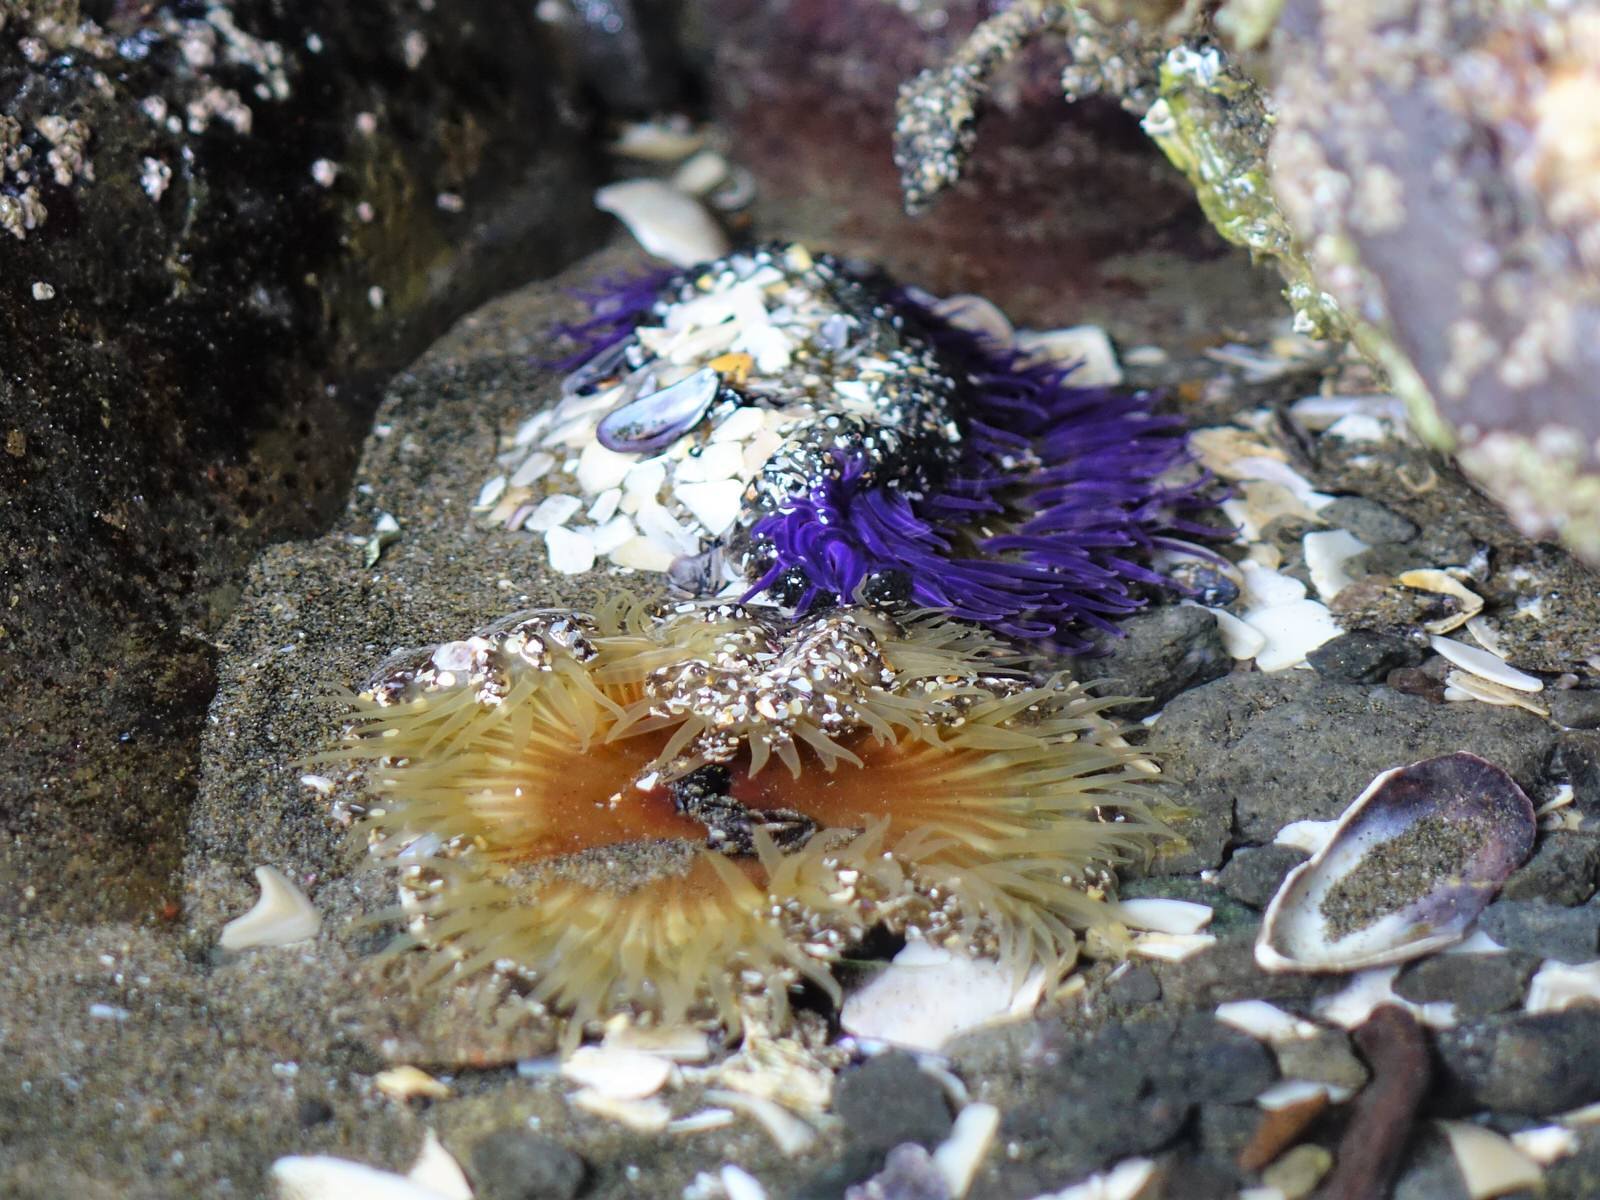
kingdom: Animalia
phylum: Cnidaria
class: Anthozoa
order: Actiniaria
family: Actiniidae
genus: Oulactis
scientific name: Oulactis magna
